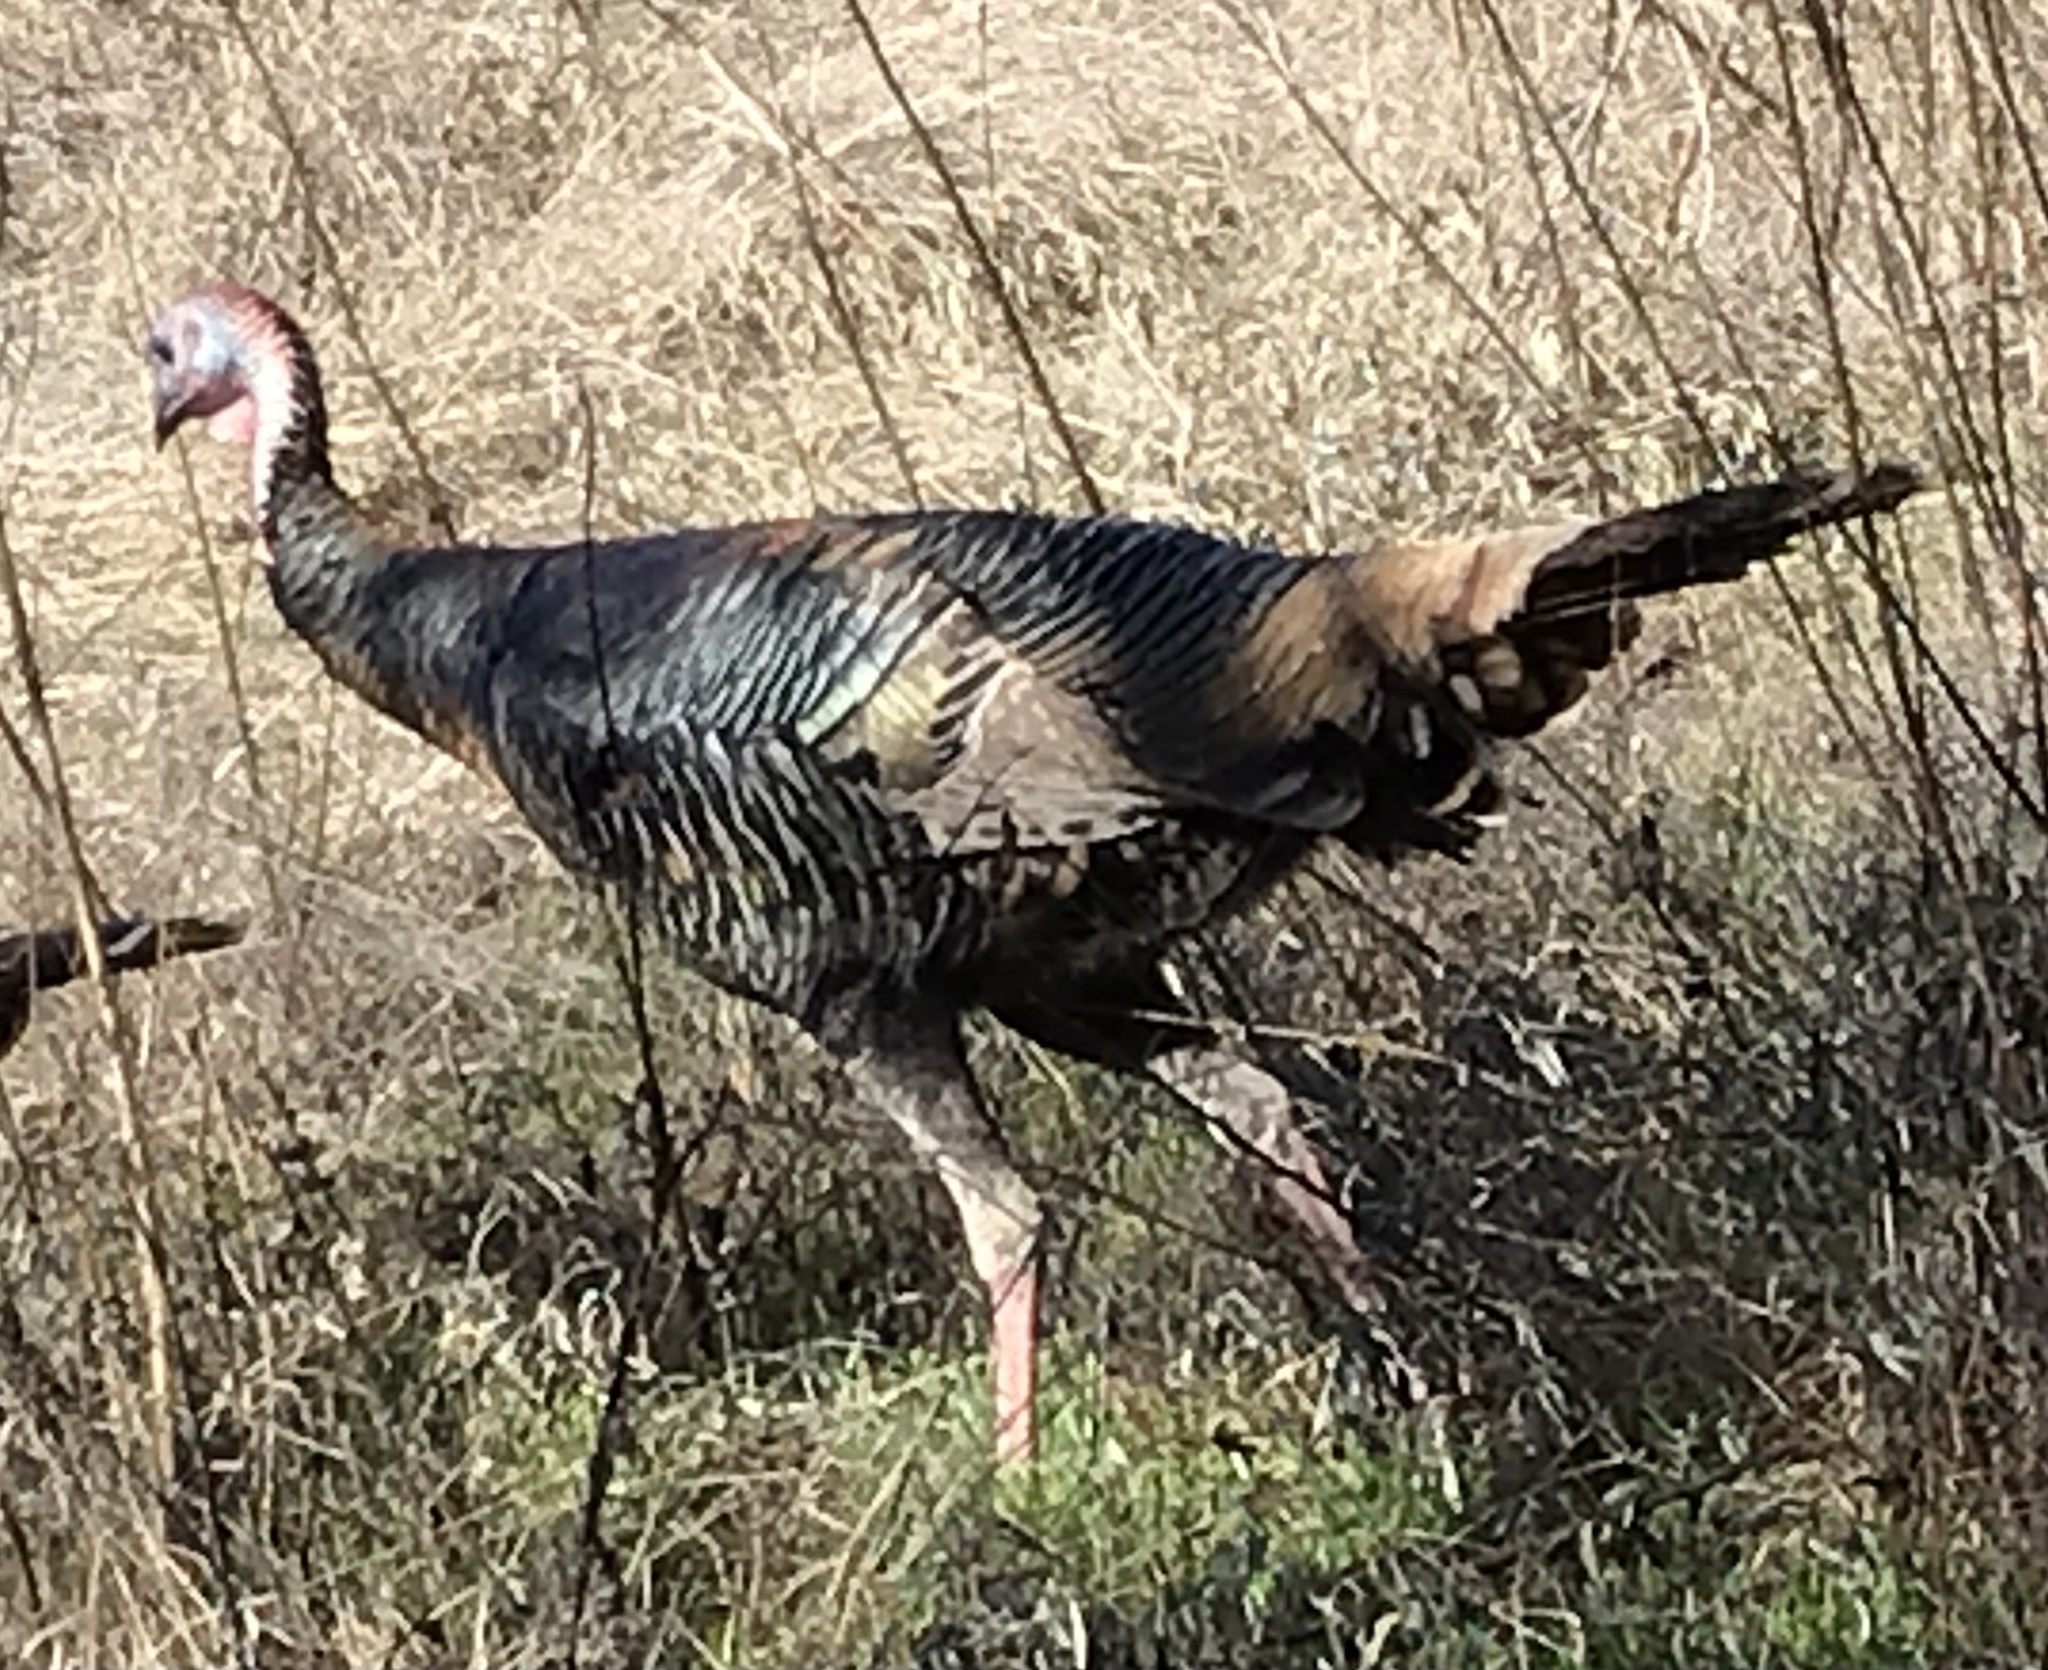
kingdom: Animalia
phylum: Chordata
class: Aves
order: Galliformes
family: Phasianidae
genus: Meleagris
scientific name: Meleagris gallopavo
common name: Wild turkey
